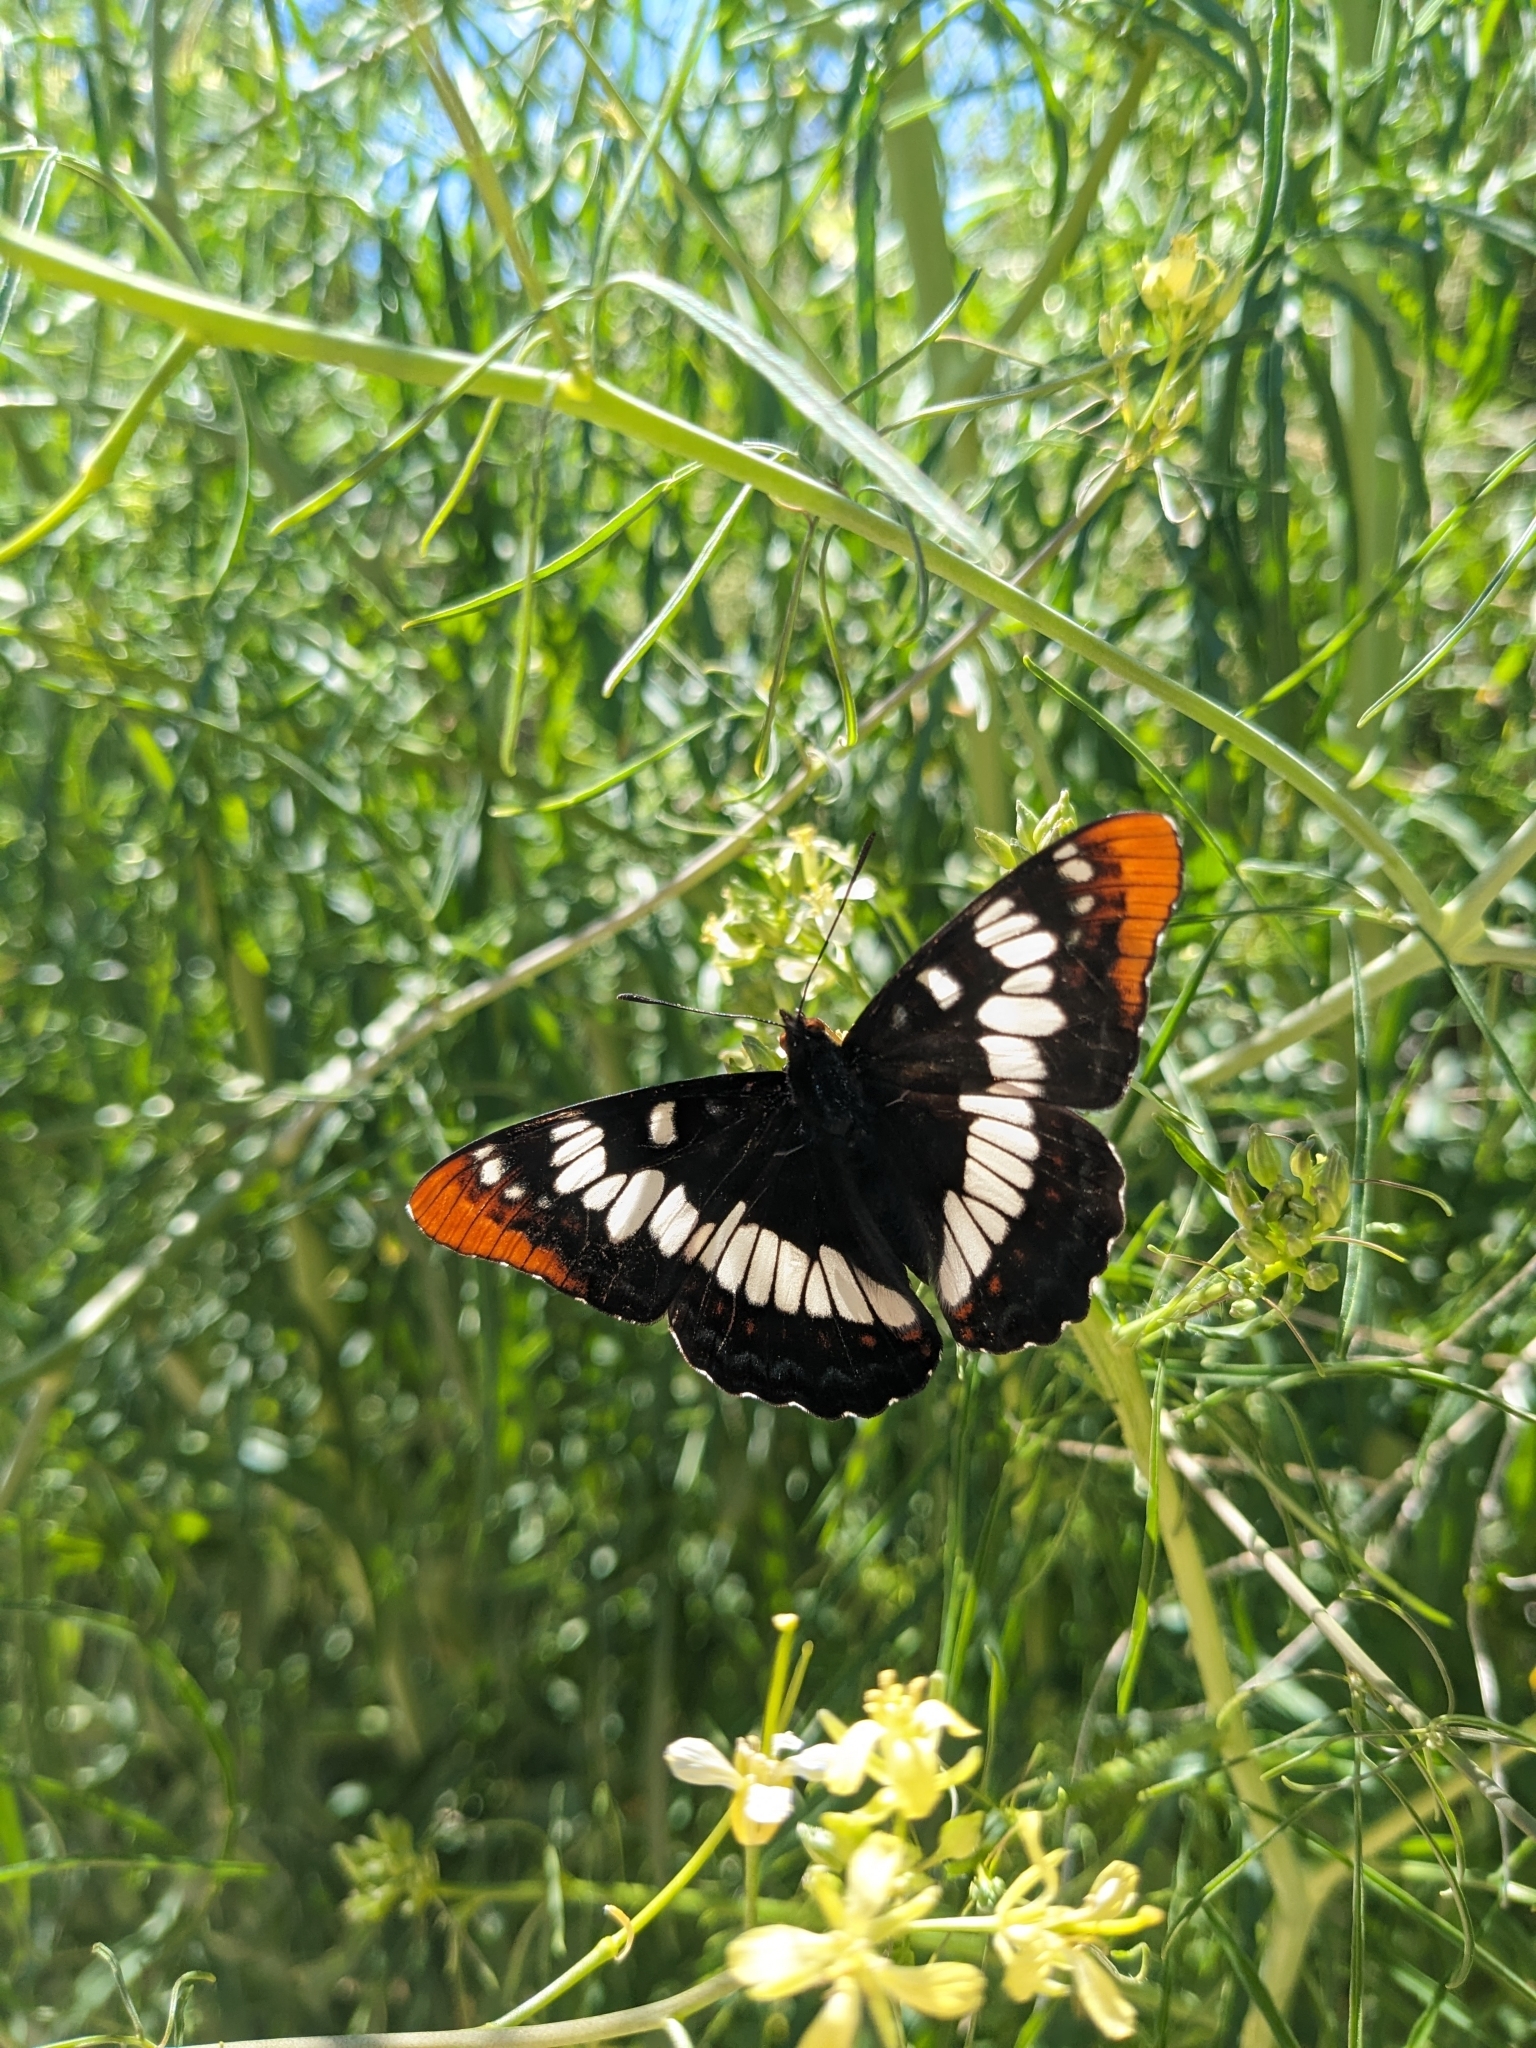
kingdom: Animalia
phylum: Arthropoda
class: Insecta
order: Lepidoptera
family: Nymphalidae
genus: Limenitis
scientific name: Limenitis lorquini
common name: Lorquin's admiral
